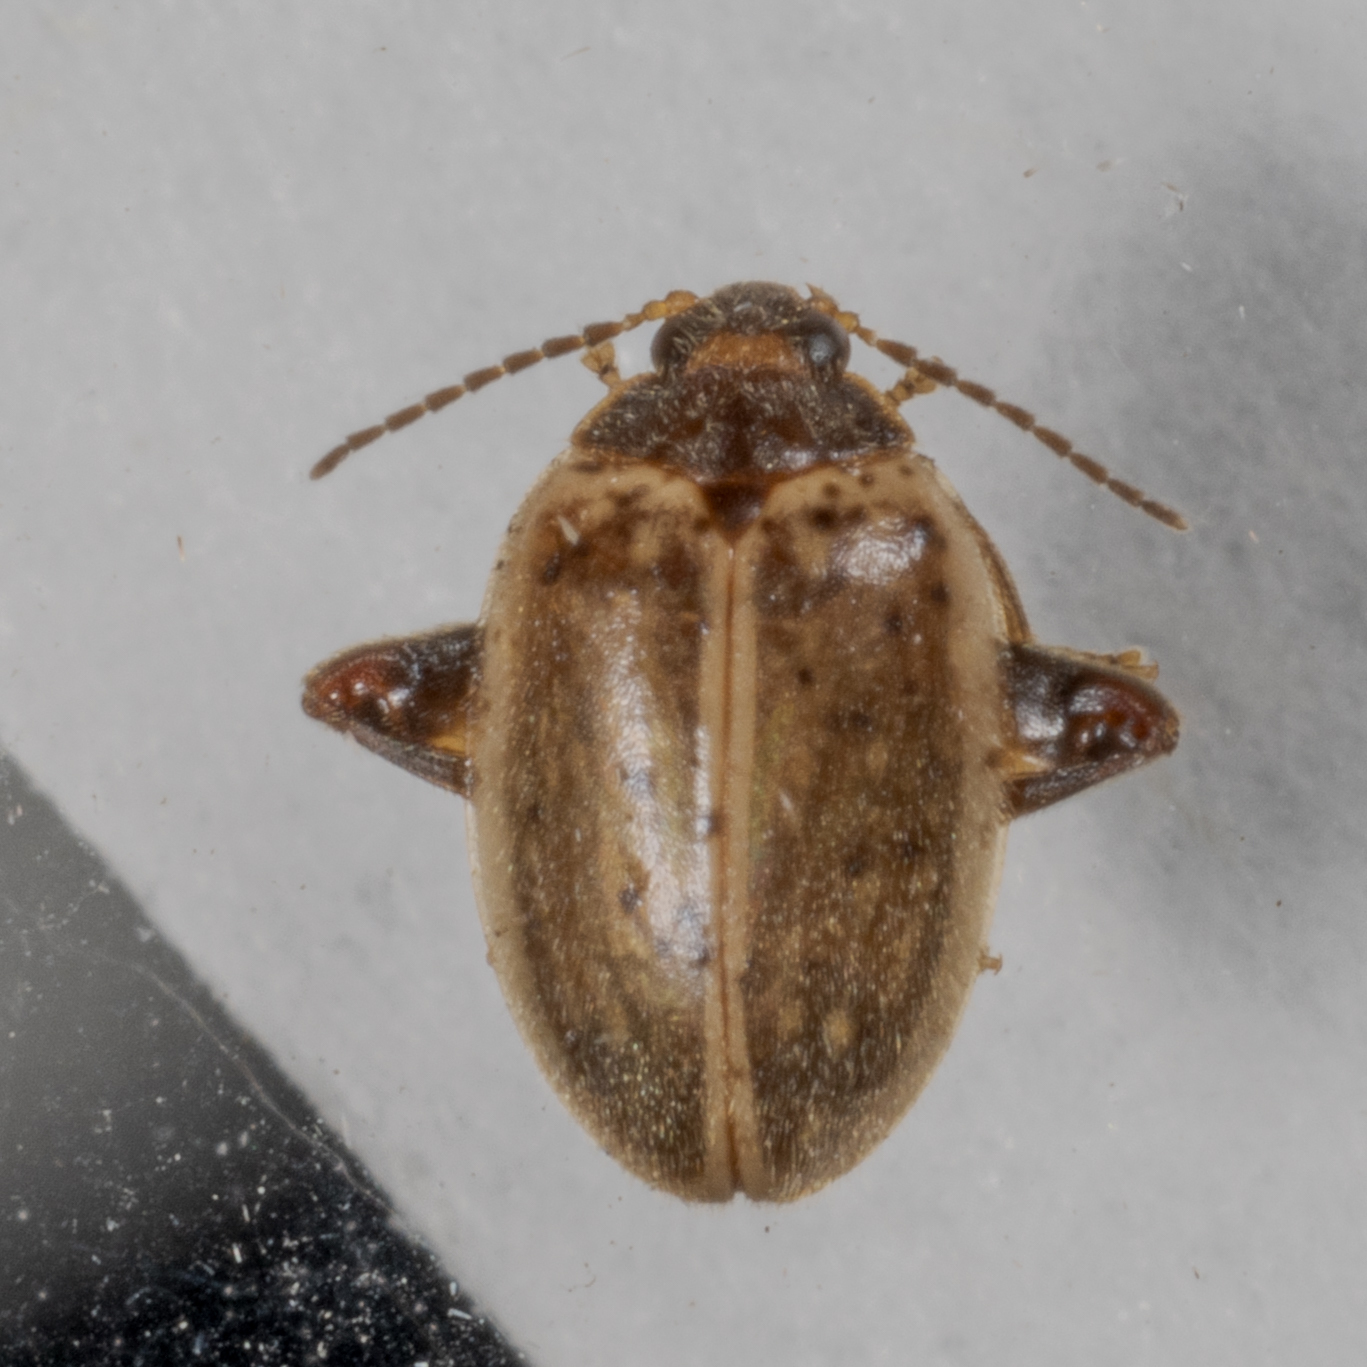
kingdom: Animalia
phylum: Arthropoda
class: Insecta
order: Coleoptera
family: Scirtidae
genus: Ora
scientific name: Ora discoidea
